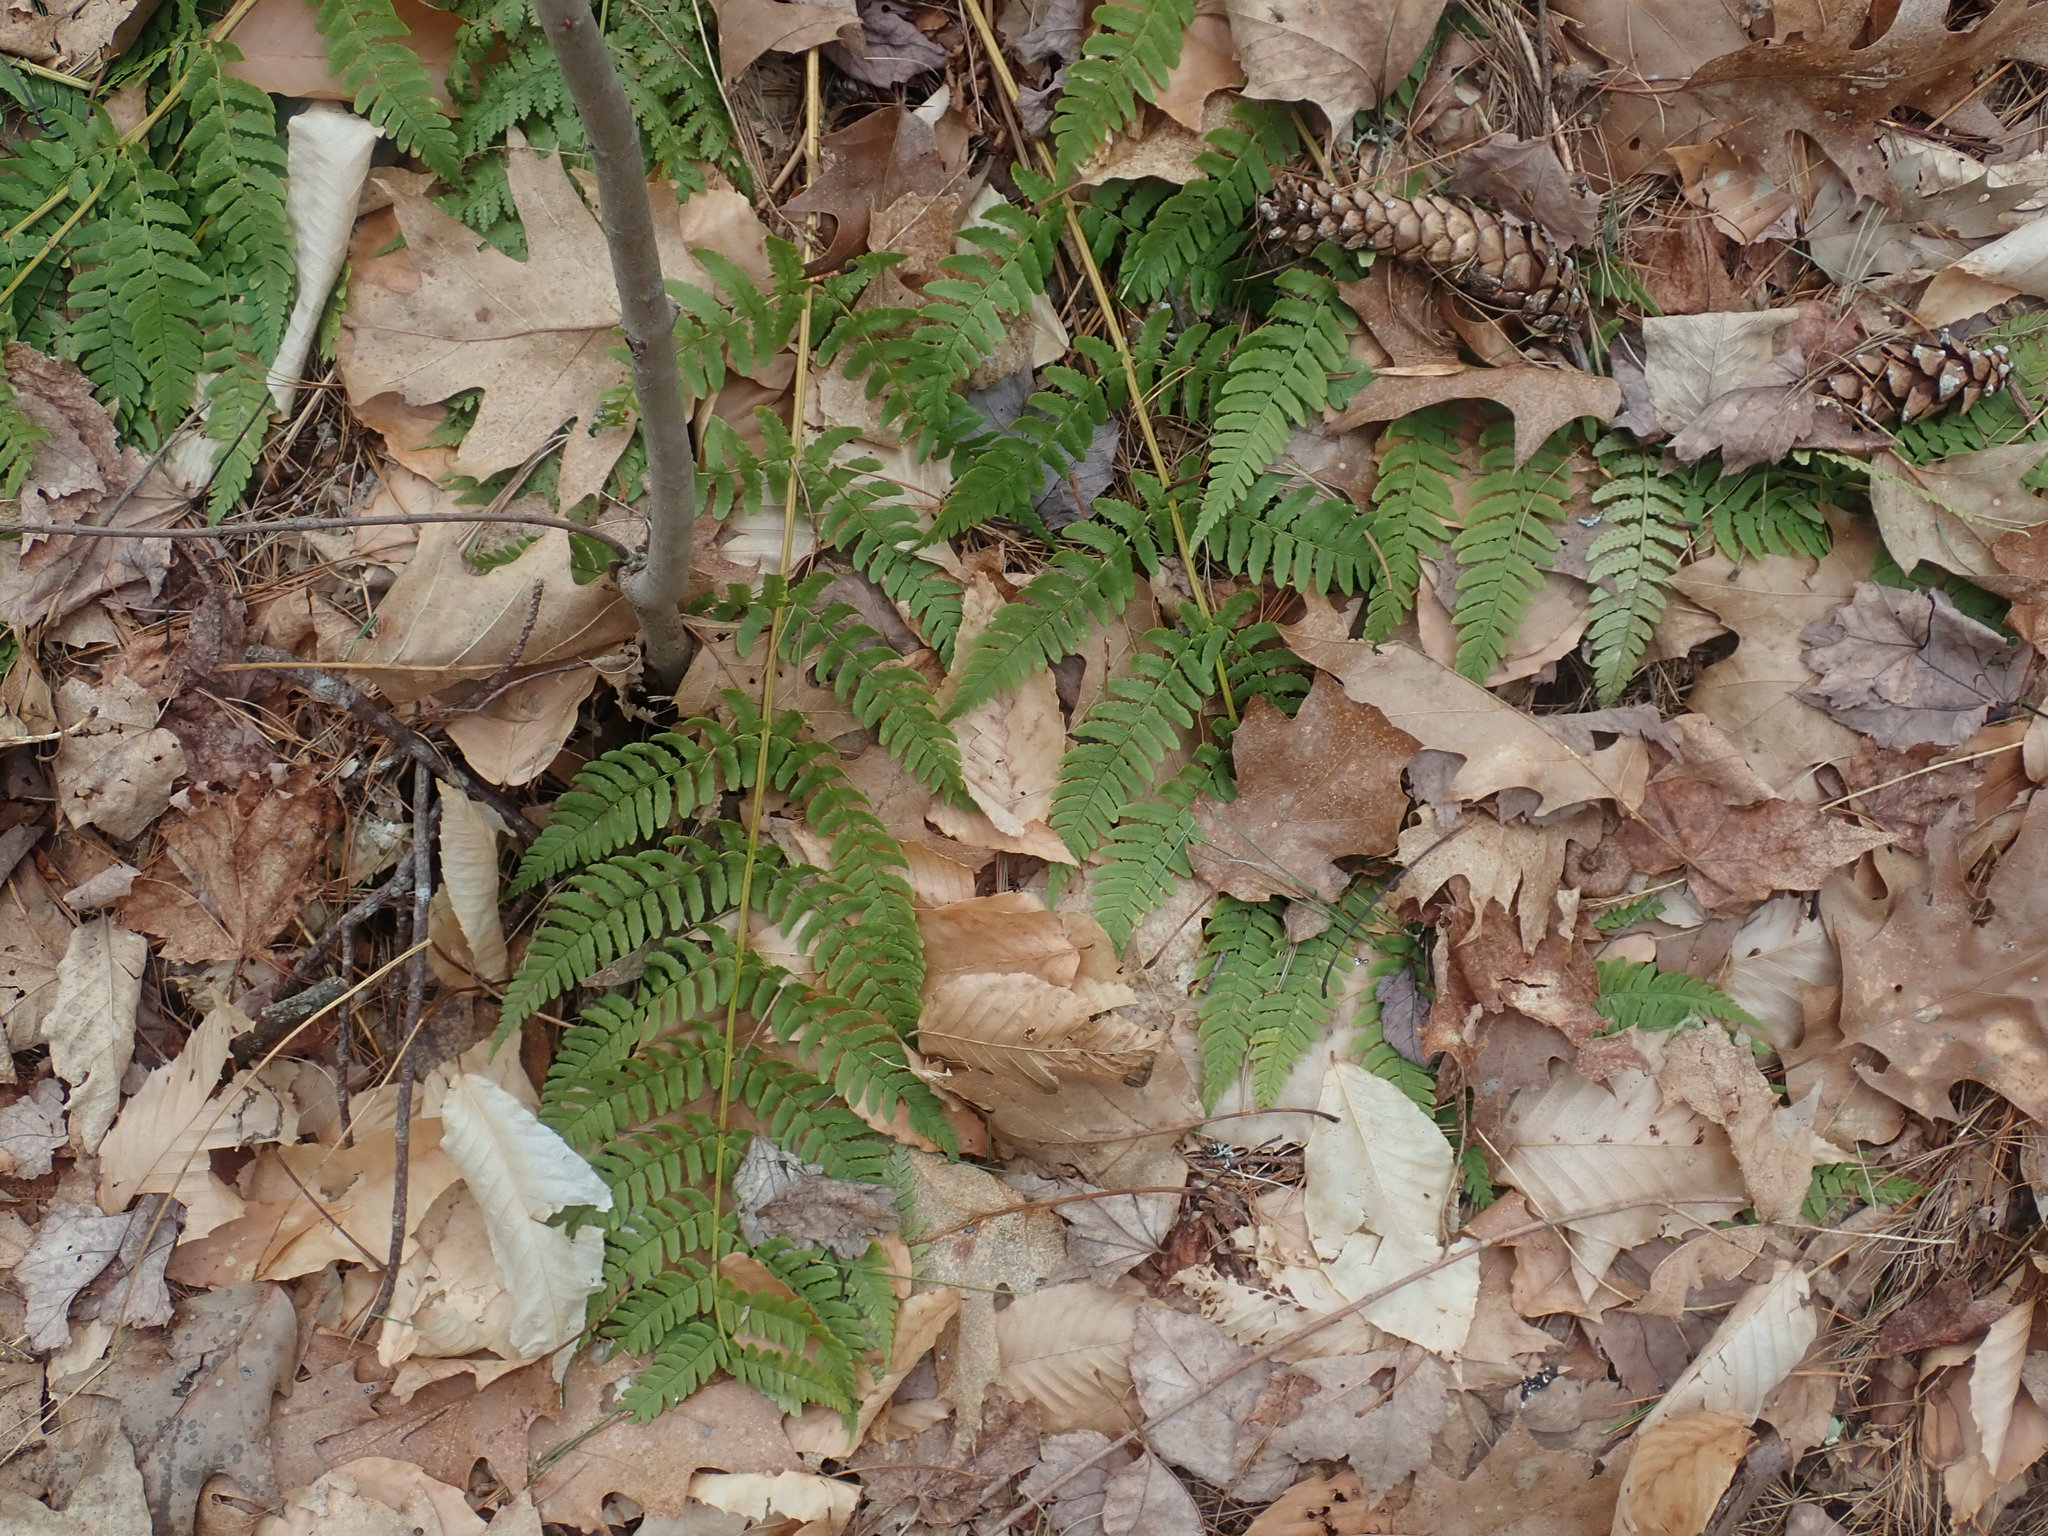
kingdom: Plantae
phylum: Tracheophyta
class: Polypodiopsida
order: Polypodiales
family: Dryopteridaceae
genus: Dryopteris
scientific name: Dryopteris marginalis
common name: Marginal wood fern
